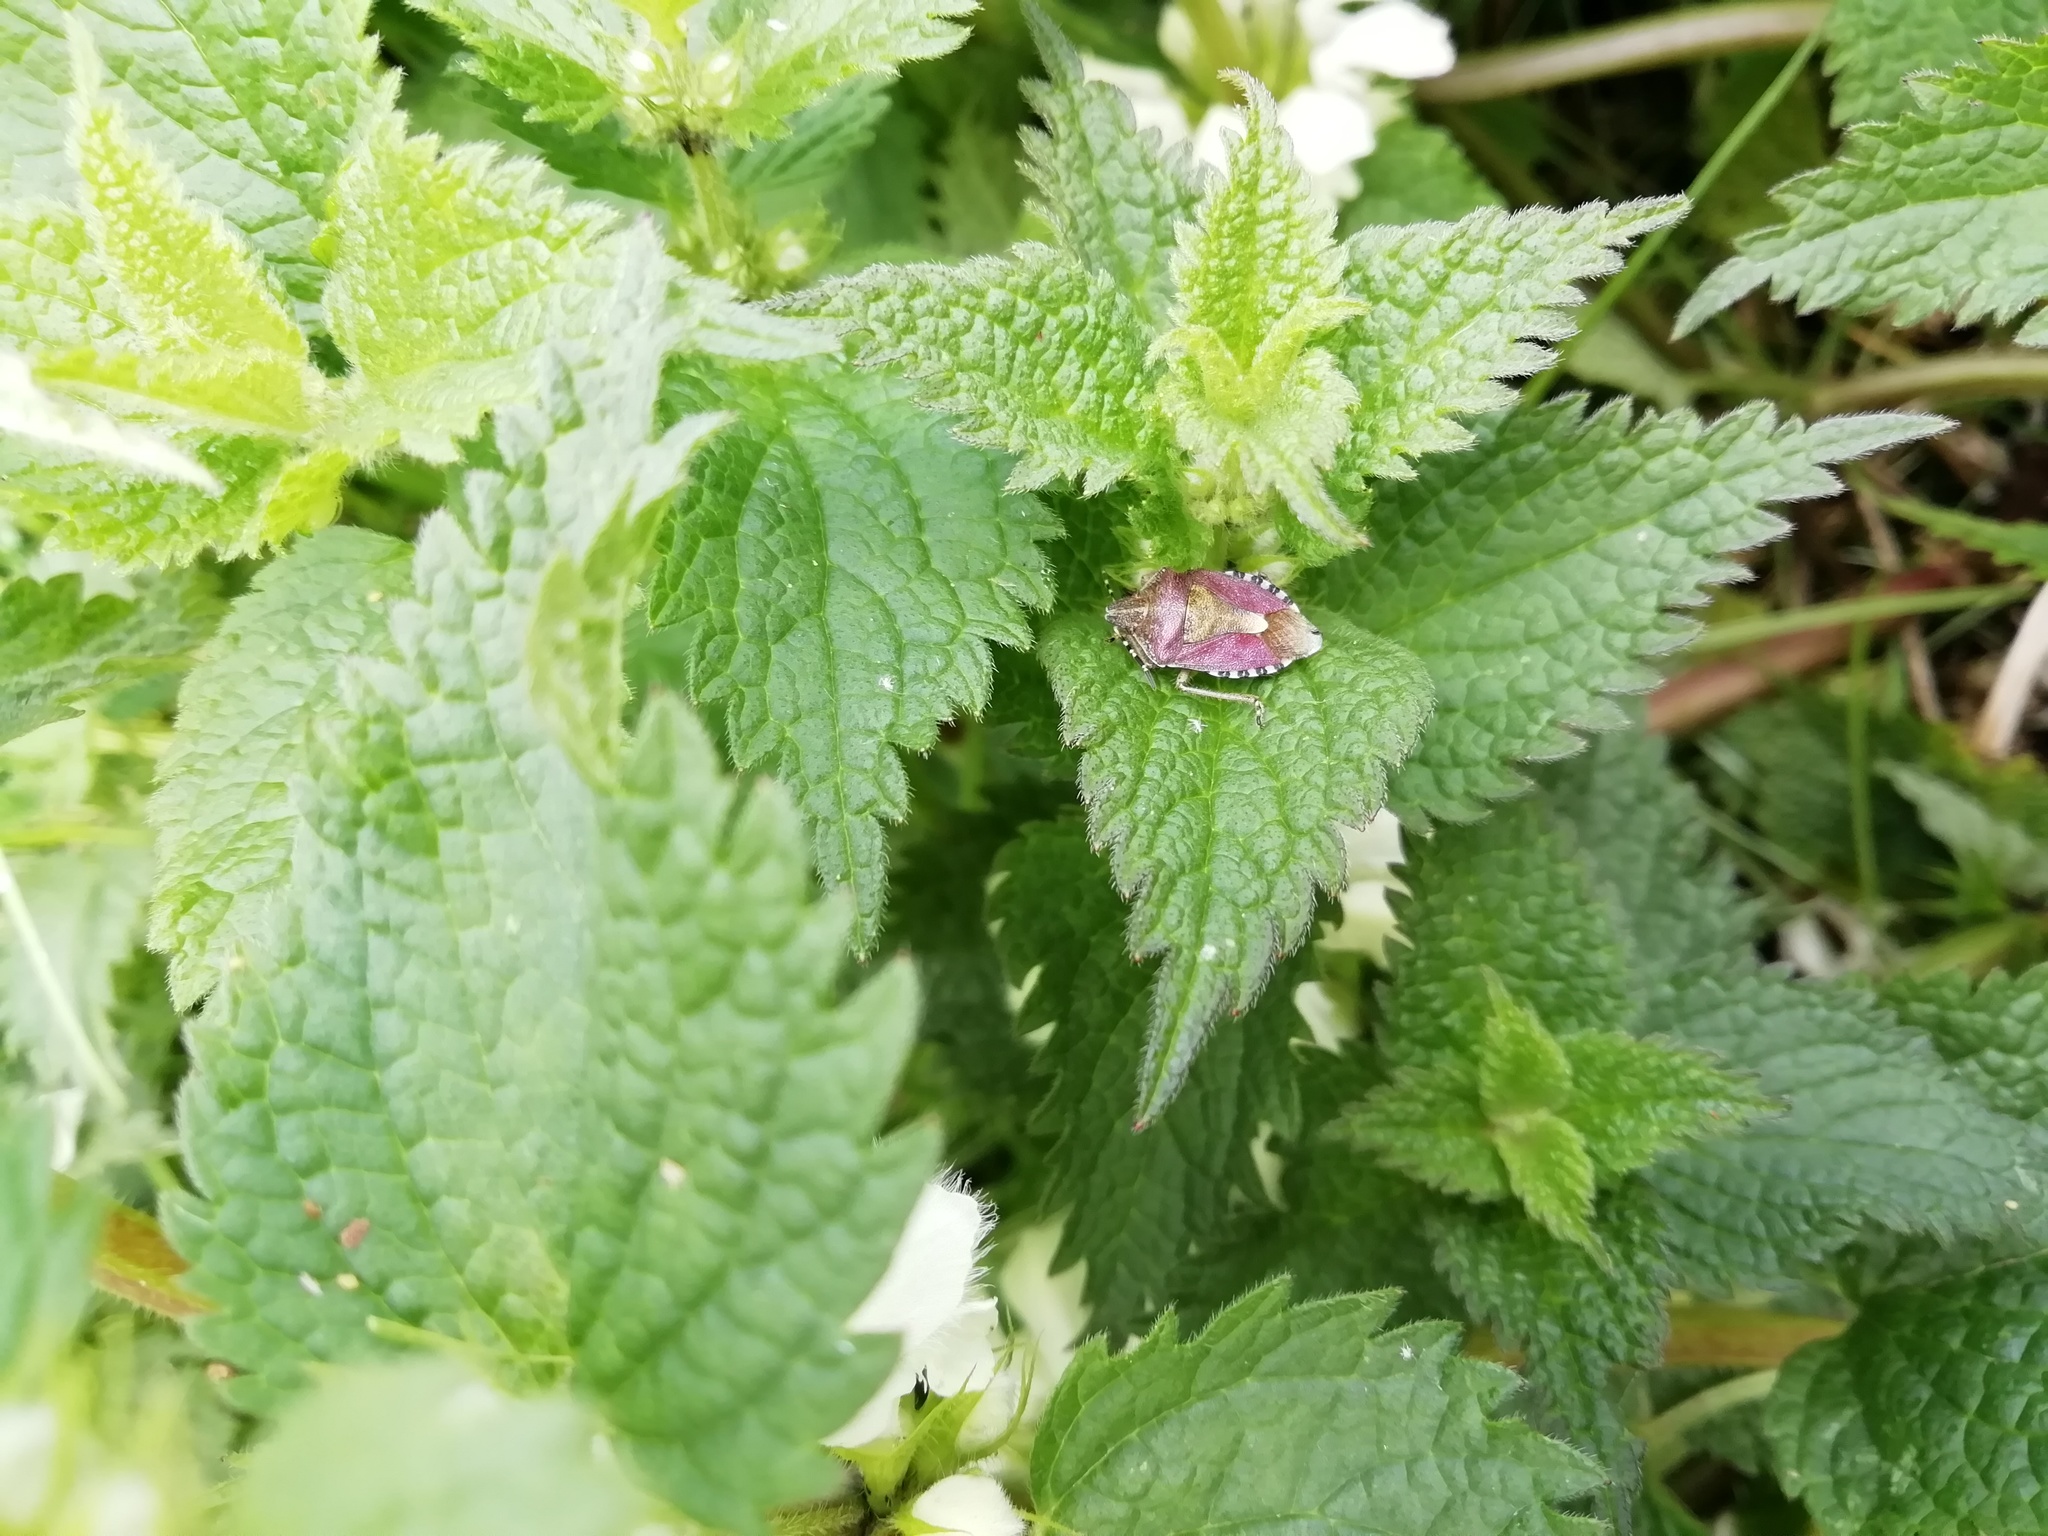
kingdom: Animalia
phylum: Arthropoda
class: Insecta
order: Hemiptera
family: Pentatomidae
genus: Dolycoris
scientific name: Dolycoris baccarum
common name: Sloe bug
